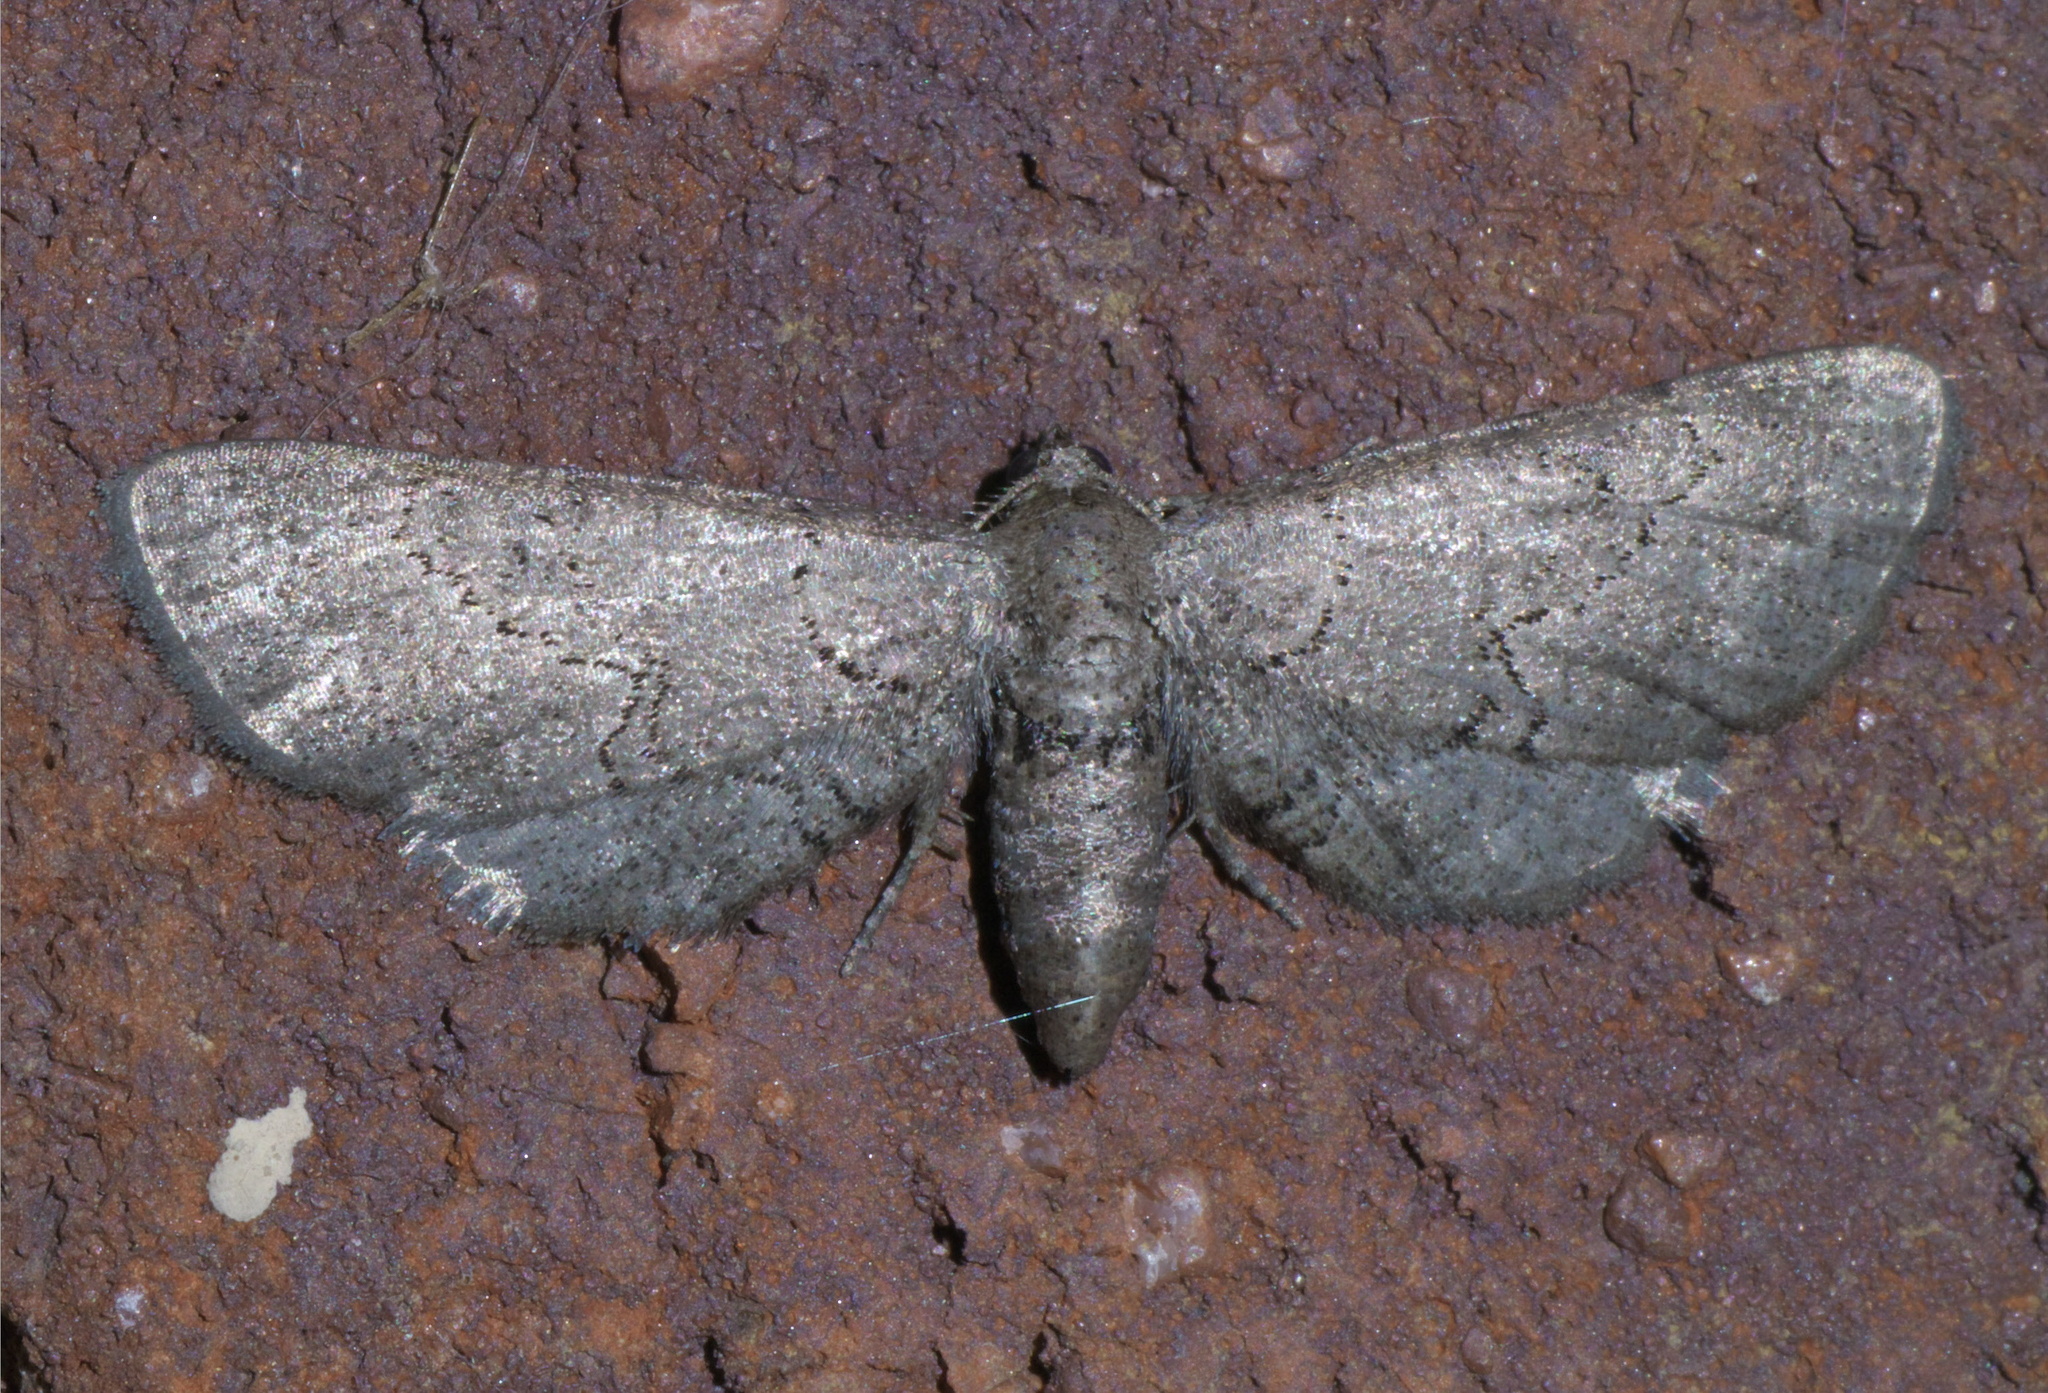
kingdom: Animalia
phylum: Arthropoda
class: Insecta
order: Lepidoptera
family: Geometridae
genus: Exelis
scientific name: Exelis pyrolaria
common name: Fine lined gray
